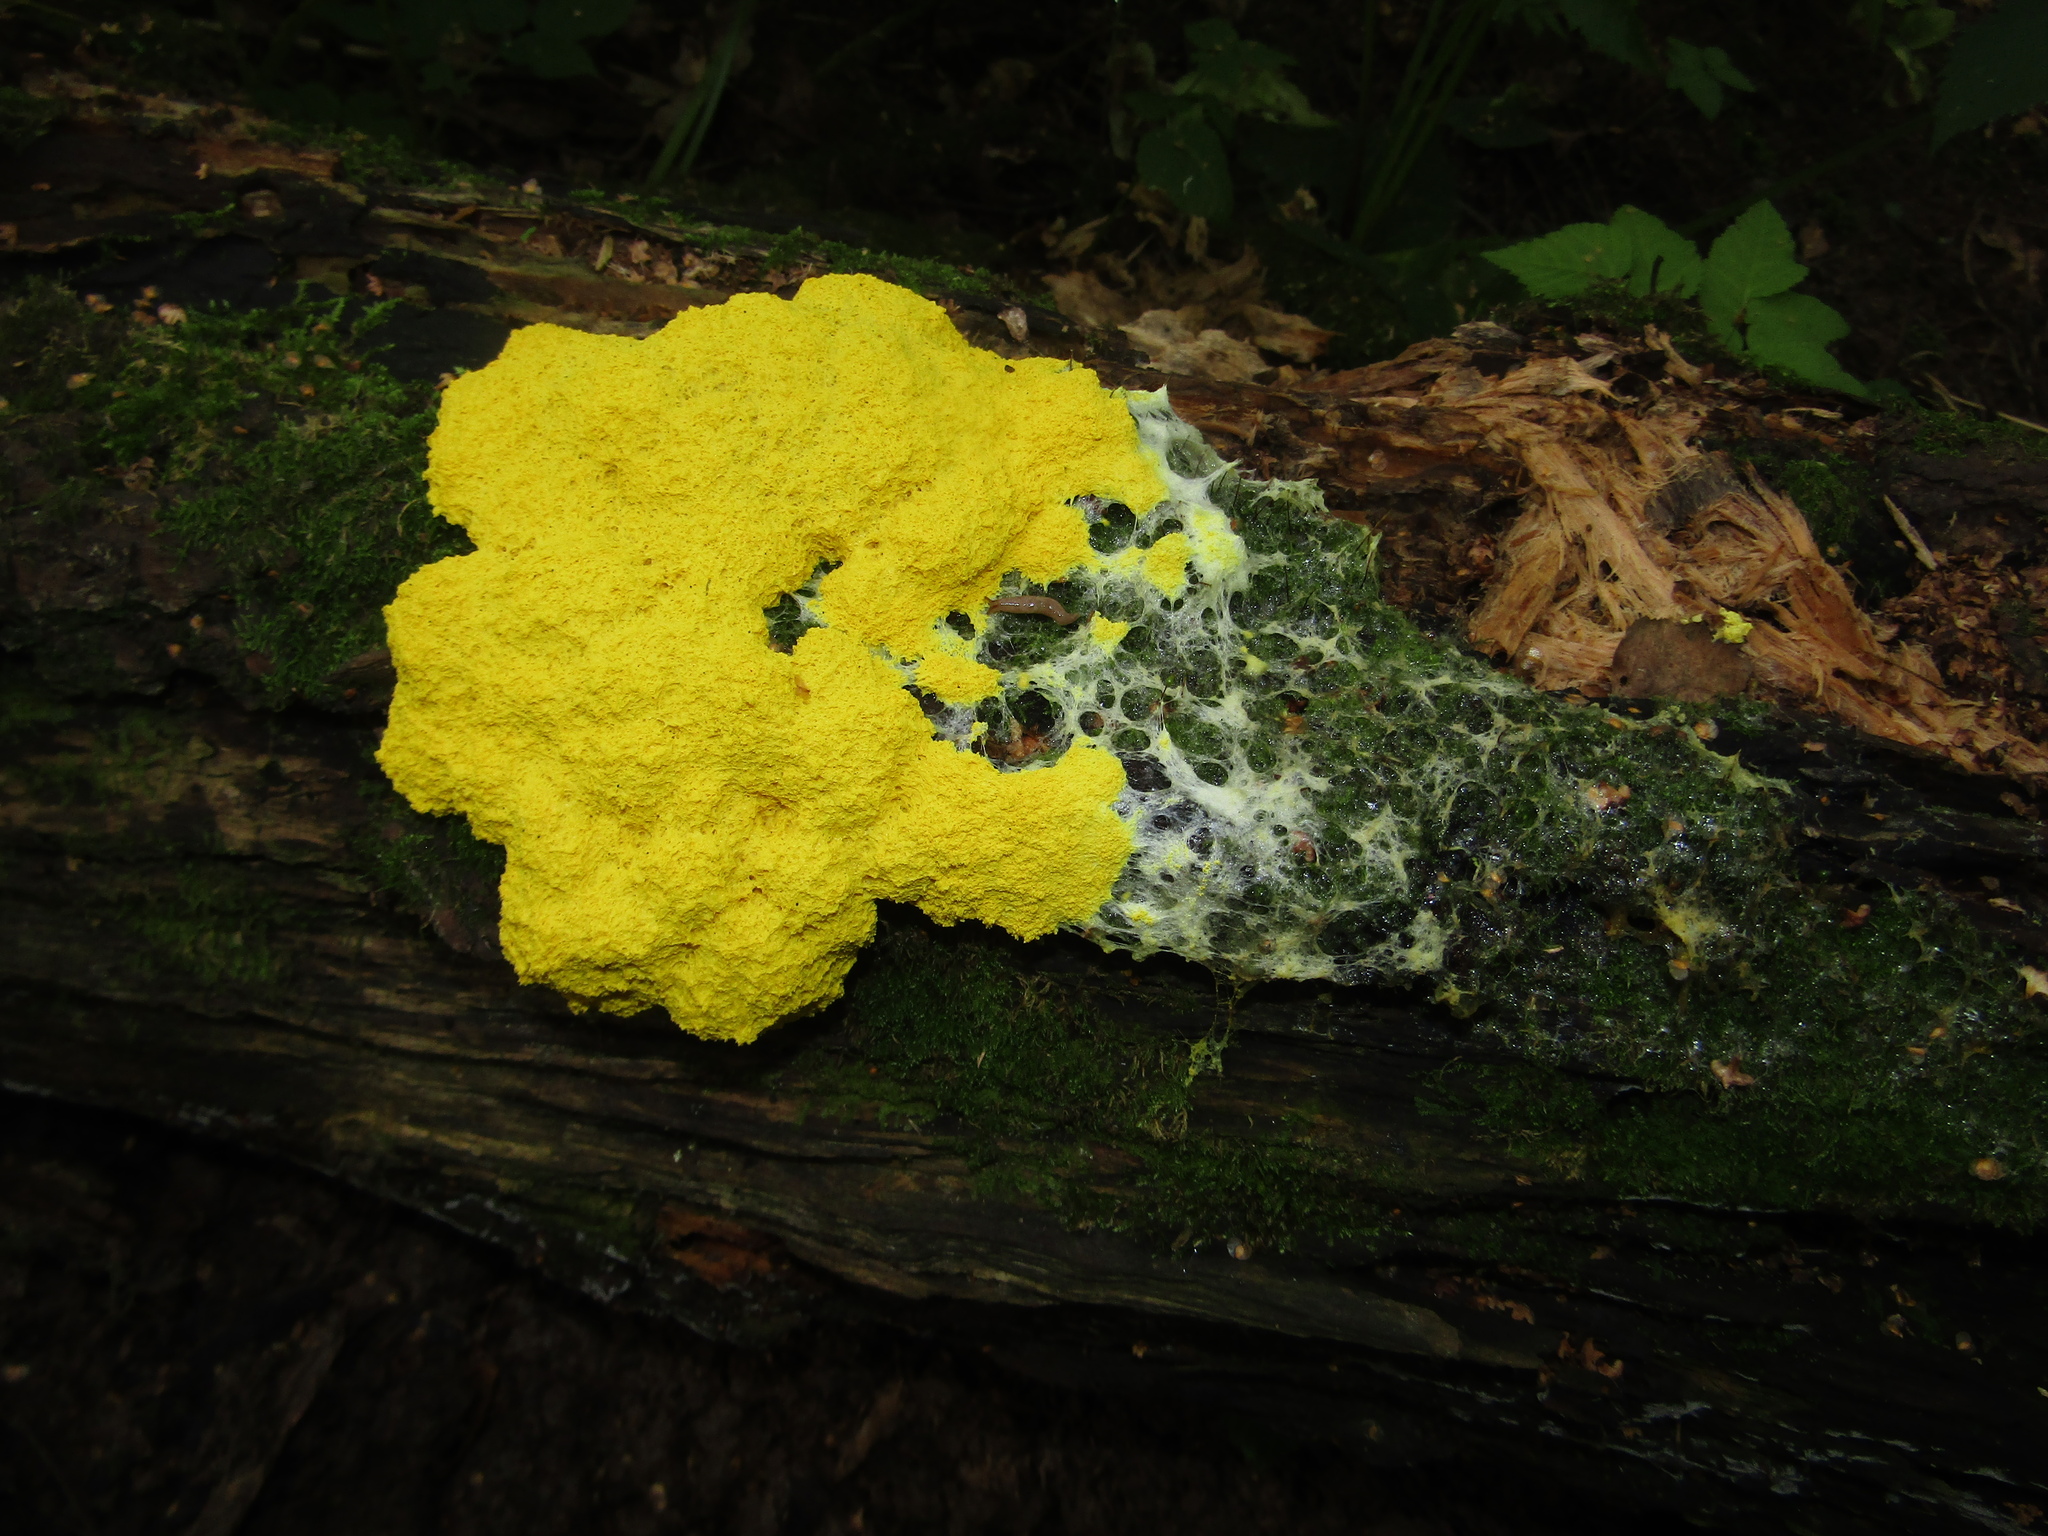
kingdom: Protozoa
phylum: Mycetozoa
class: Myxomycetes
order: Physarales
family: Physaraceae
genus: Fuligo
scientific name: Fuligo septica
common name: Dog vomit slime mold
